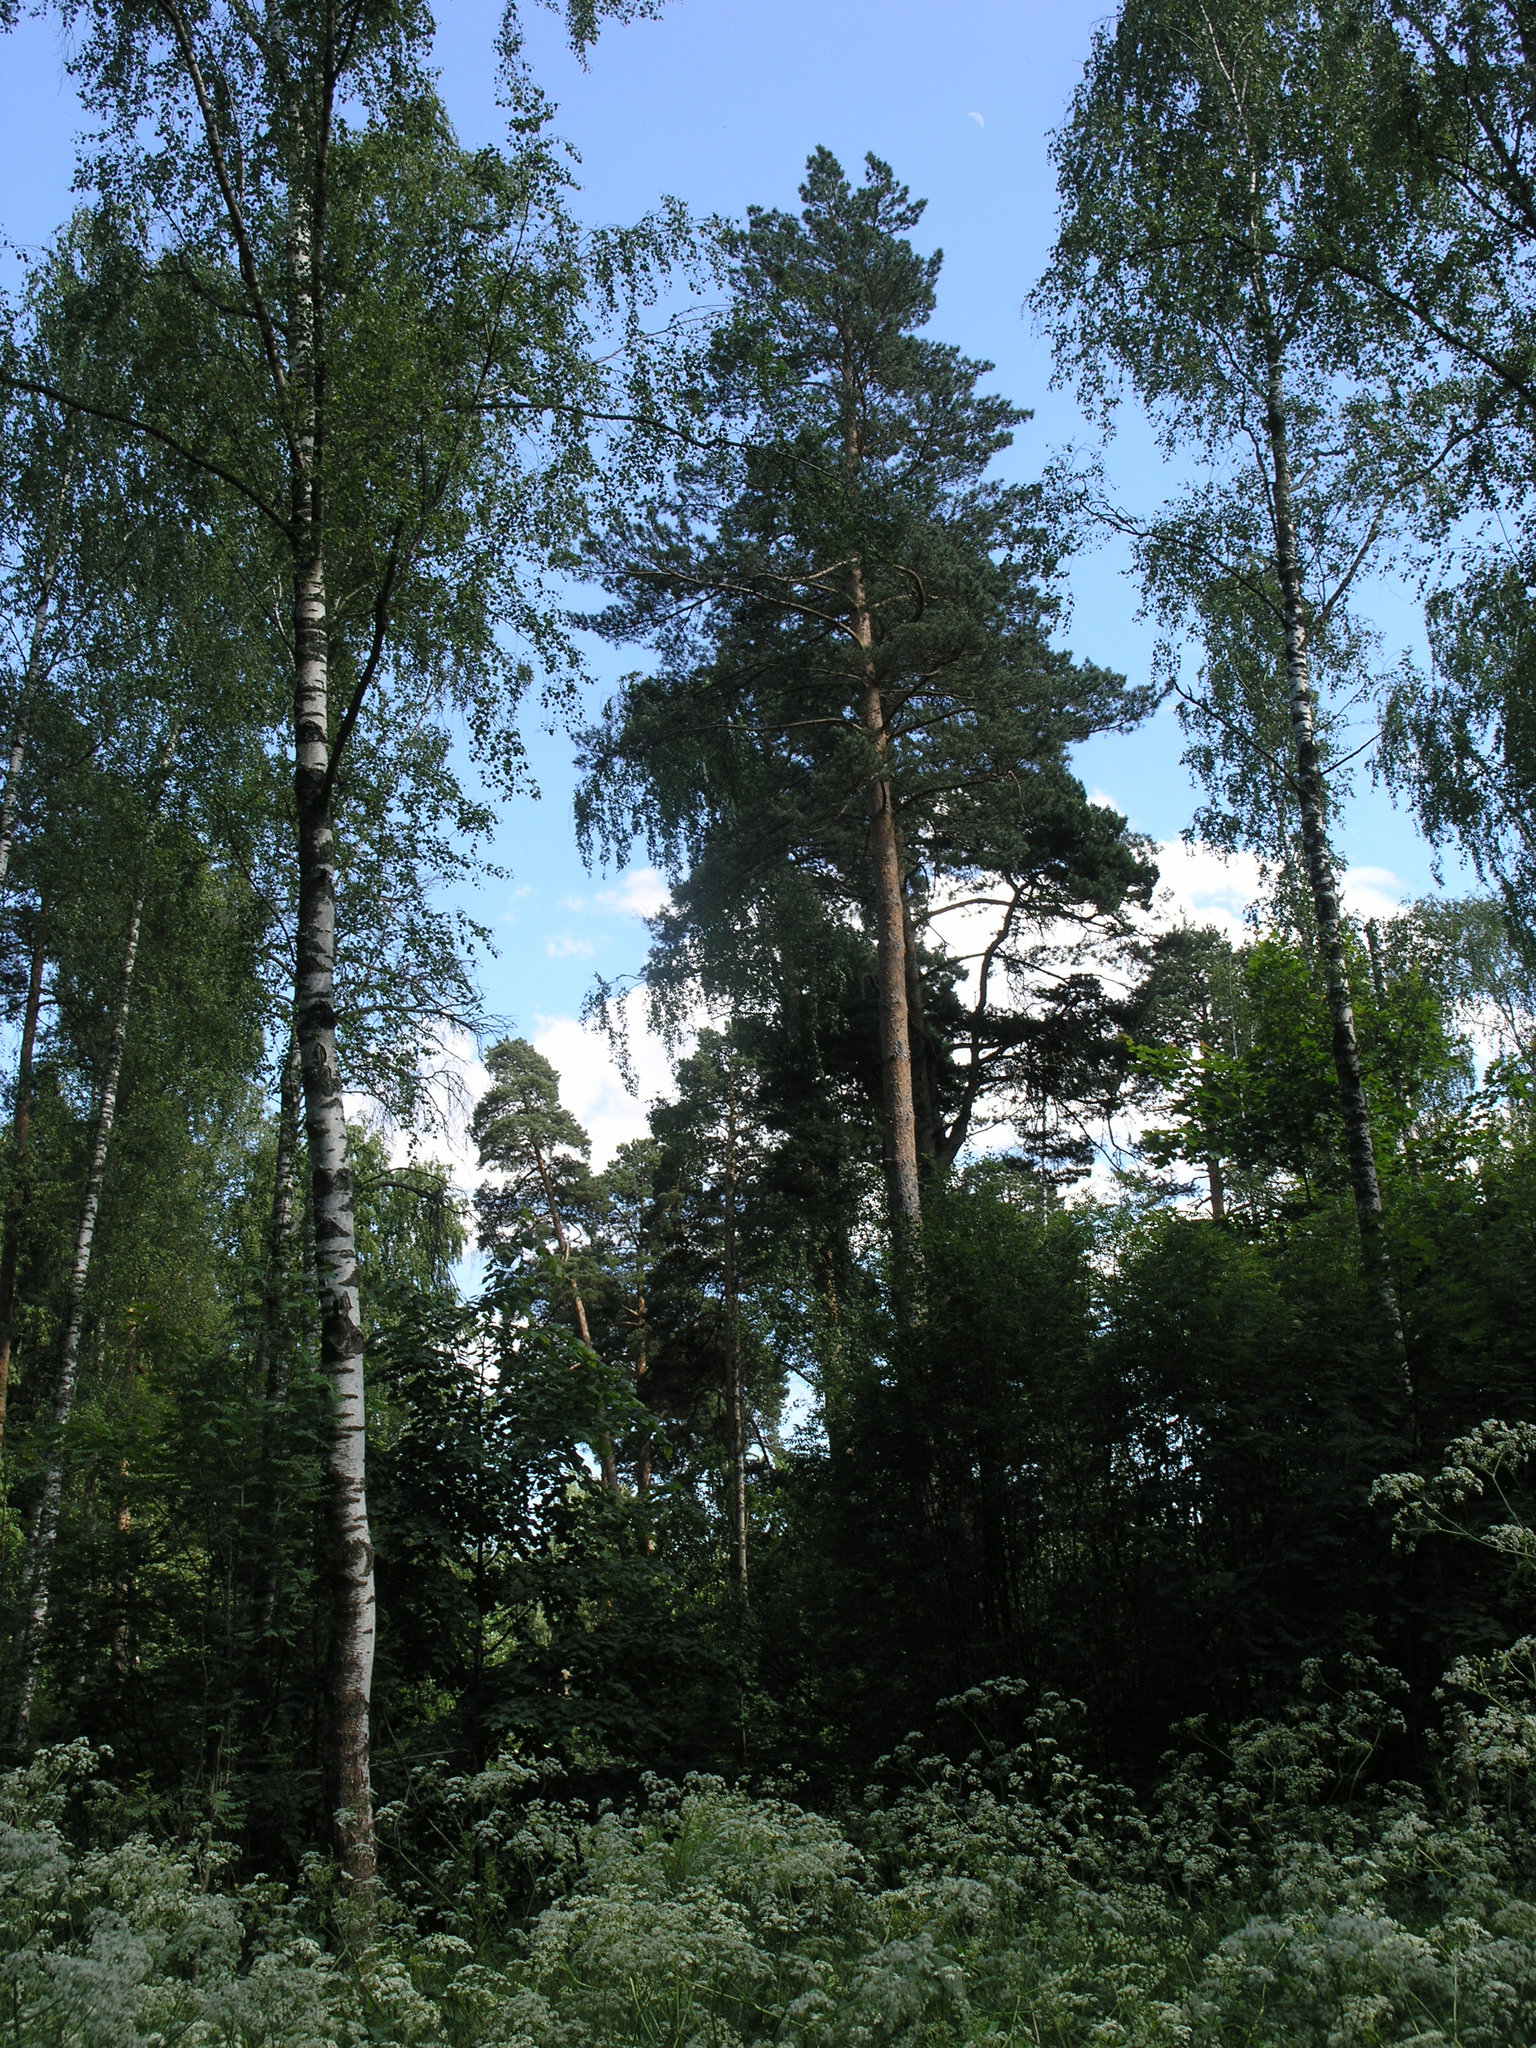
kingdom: Plantae
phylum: Tracheophyta
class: Pinopsida
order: Pinales
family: Pinaceae
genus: Pinus
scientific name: Pinus sylvestris
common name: Scots pine
